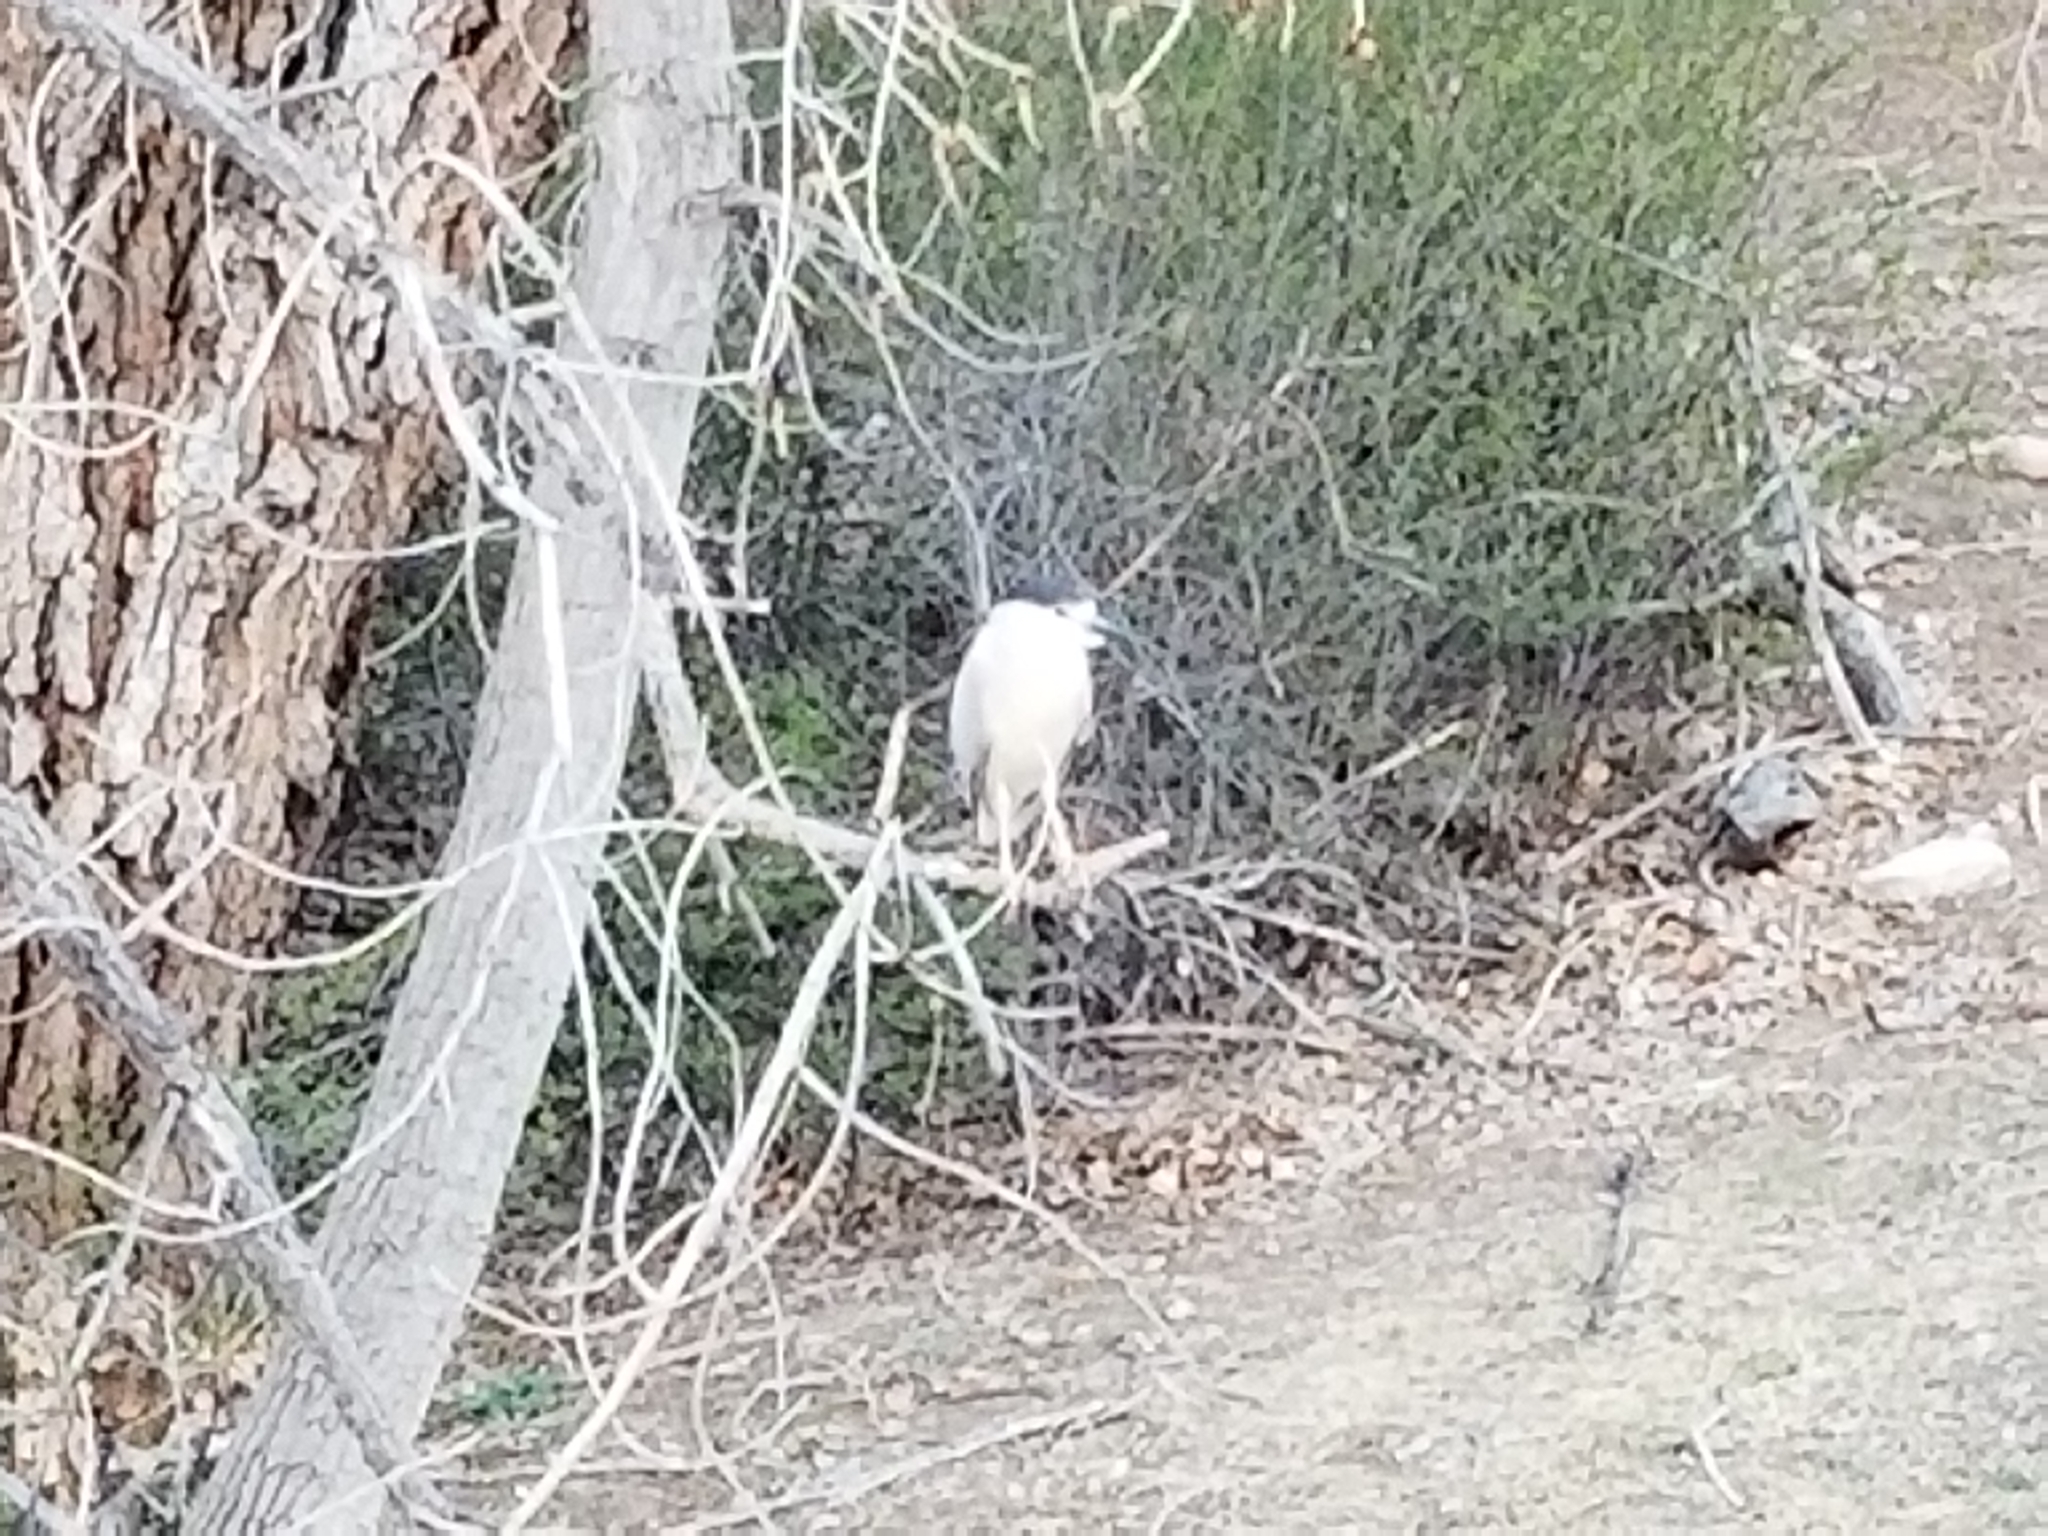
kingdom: Animalia
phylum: Chordata
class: Aves
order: Pelecaniformes
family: Ardeidae
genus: Nycticorax
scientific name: Nycticorax nycticorax
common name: Black-crowned night heron
